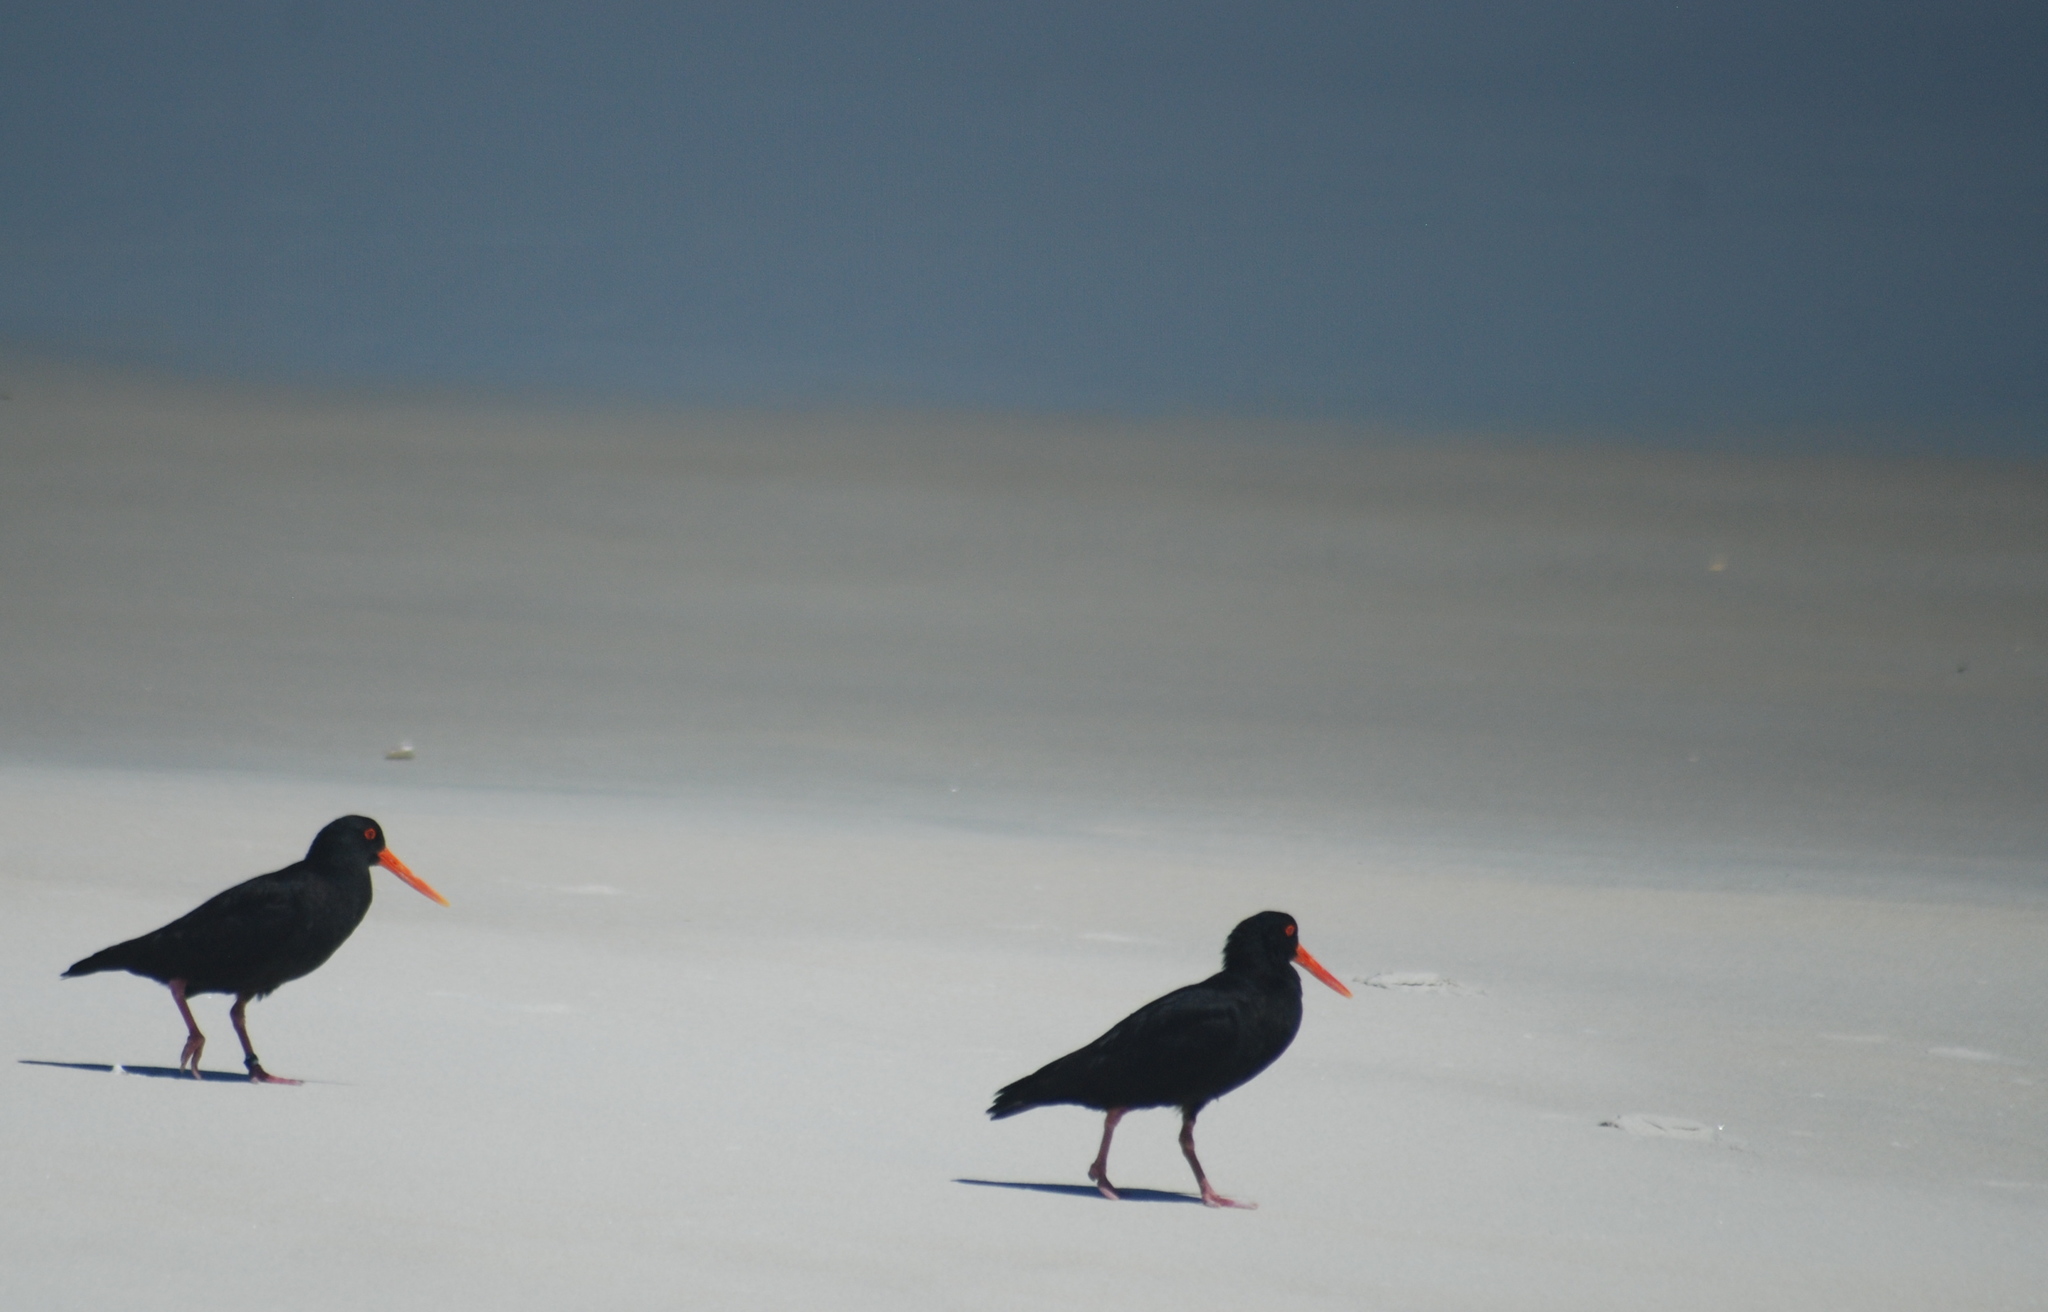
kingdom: Animalia
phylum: Chordata
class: Aves
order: Charadriiformes
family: Haematopodidae
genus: Haematopus
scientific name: Haematopus unicolor
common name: Variable oystercatcher
